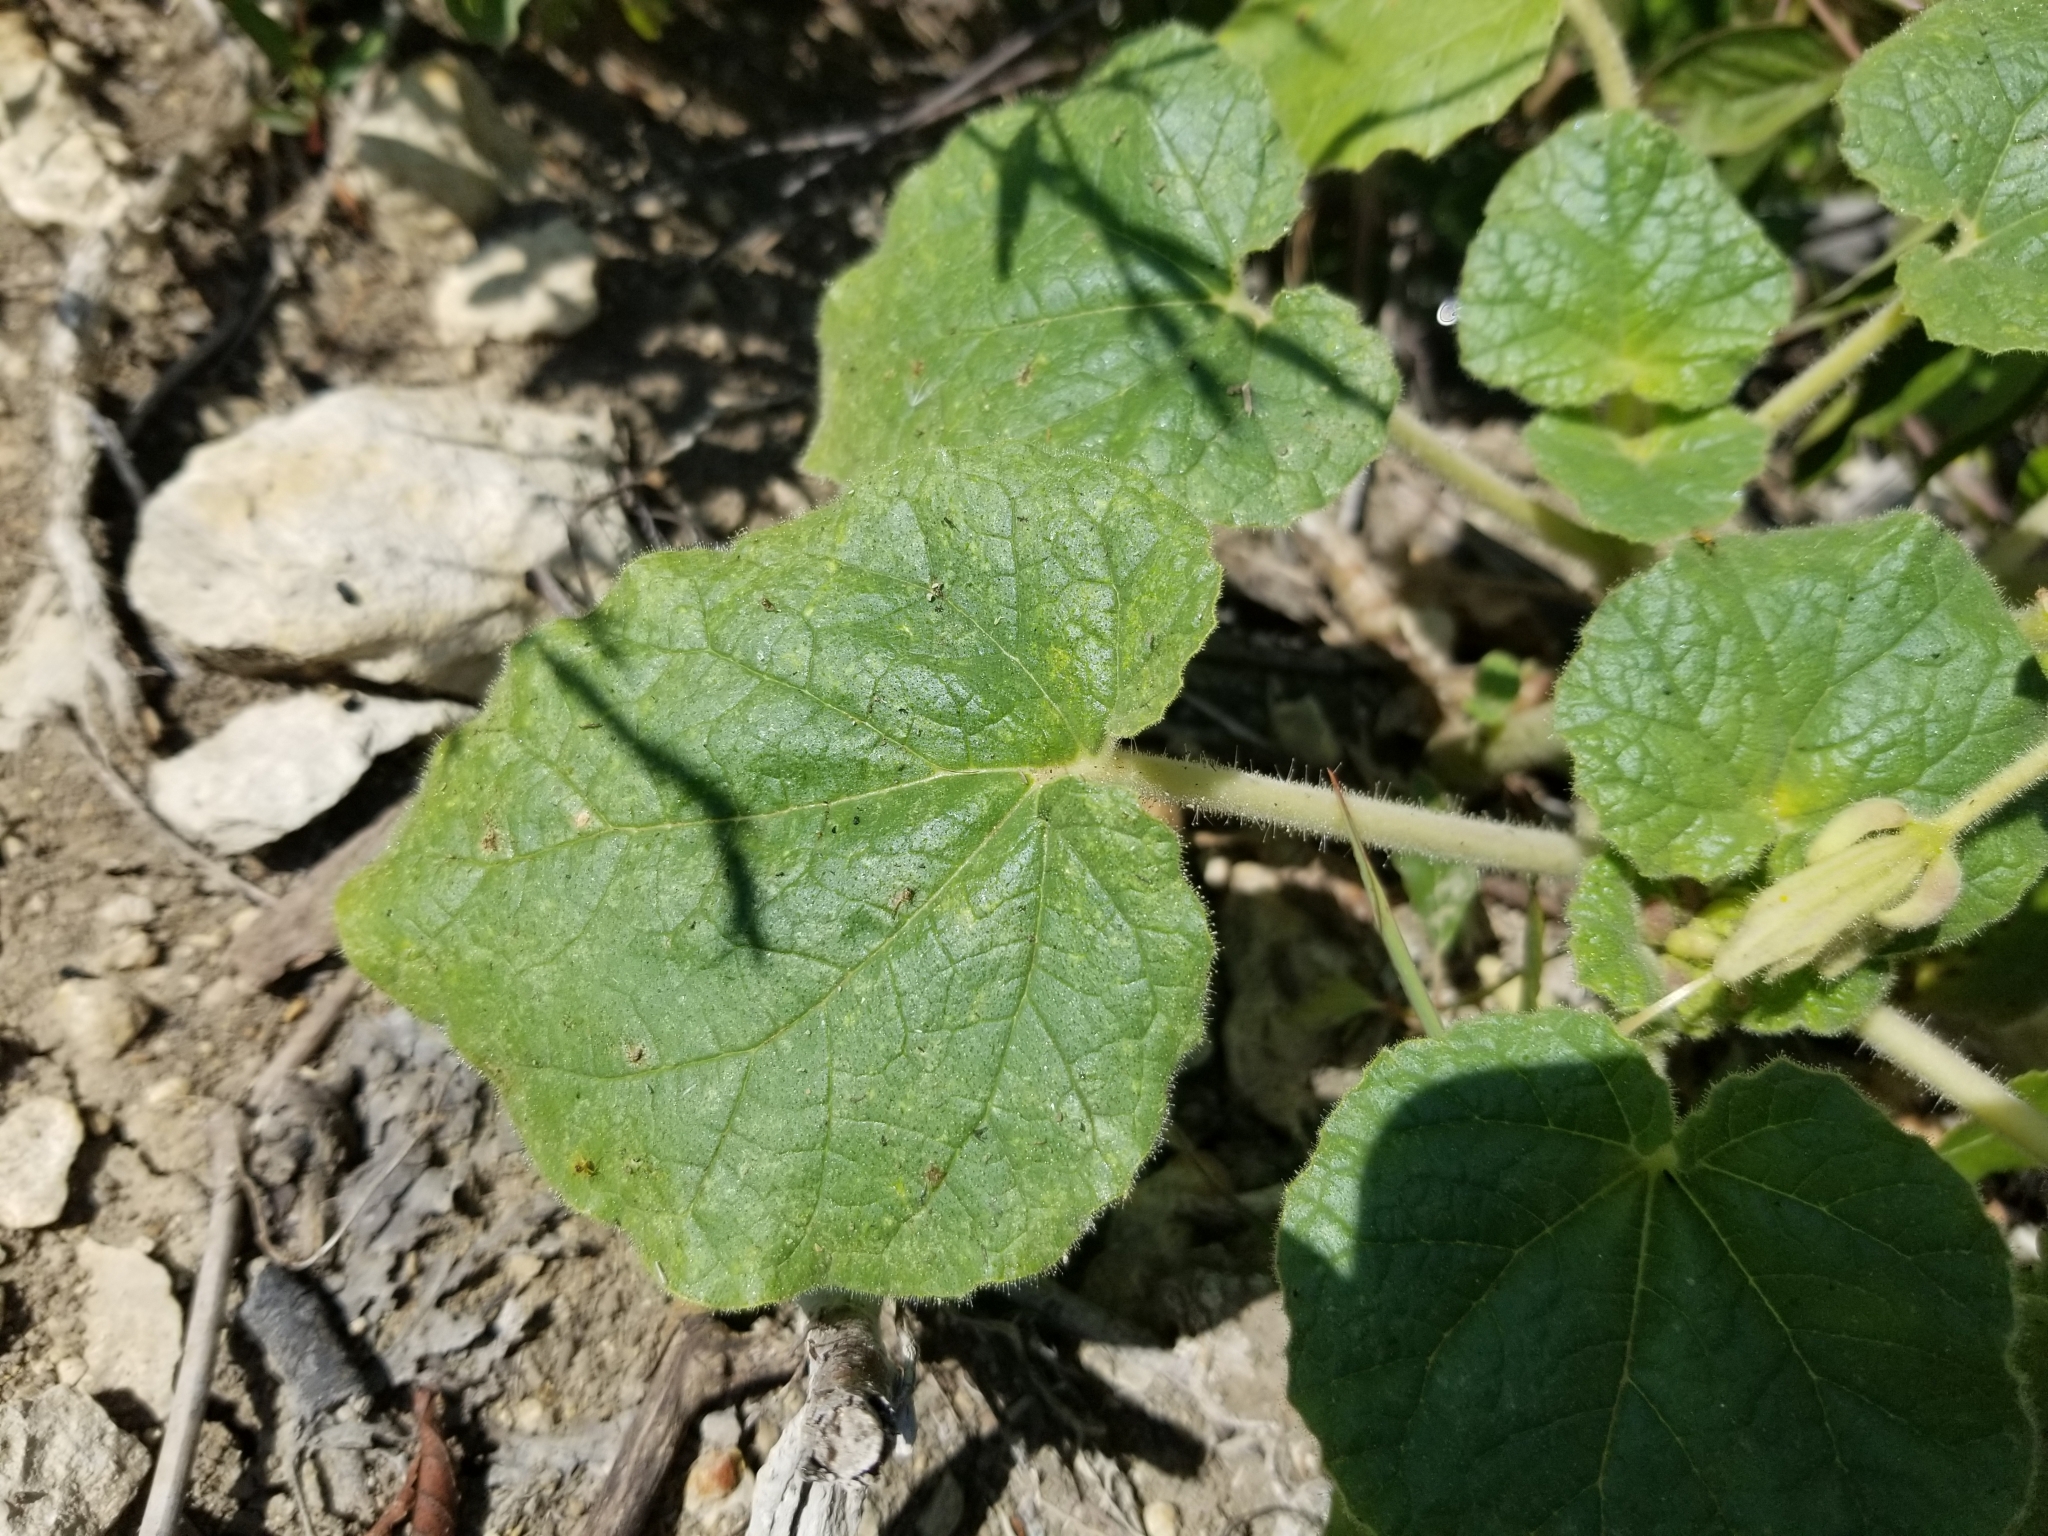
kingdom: Plantae
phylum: Tracheophyta
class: Magnoliopsida
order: Lamiales
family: Martyniaceae
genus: Proboscidea
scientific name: Proboscidea louisianica
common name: Elephant tusks
